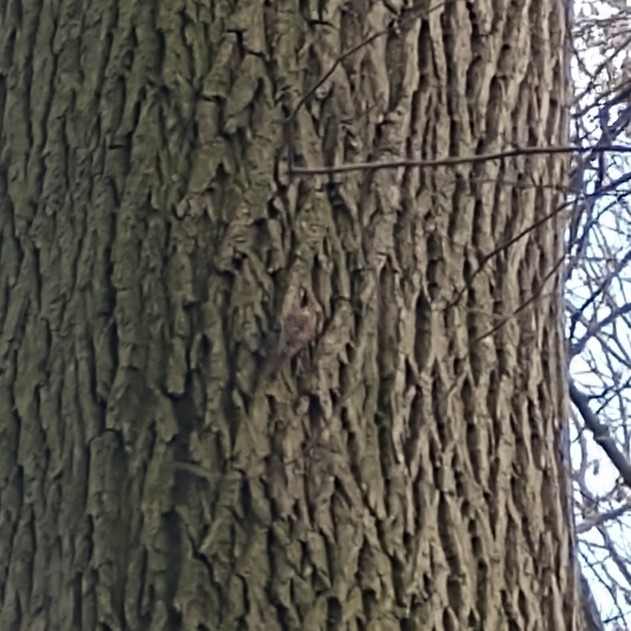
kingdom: Animalia
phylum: Chordata
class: Aves
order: Passeriformes
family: Certhiidae
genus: Certhia
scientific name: Certhia familiaris
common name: Eurasian treecreeper
